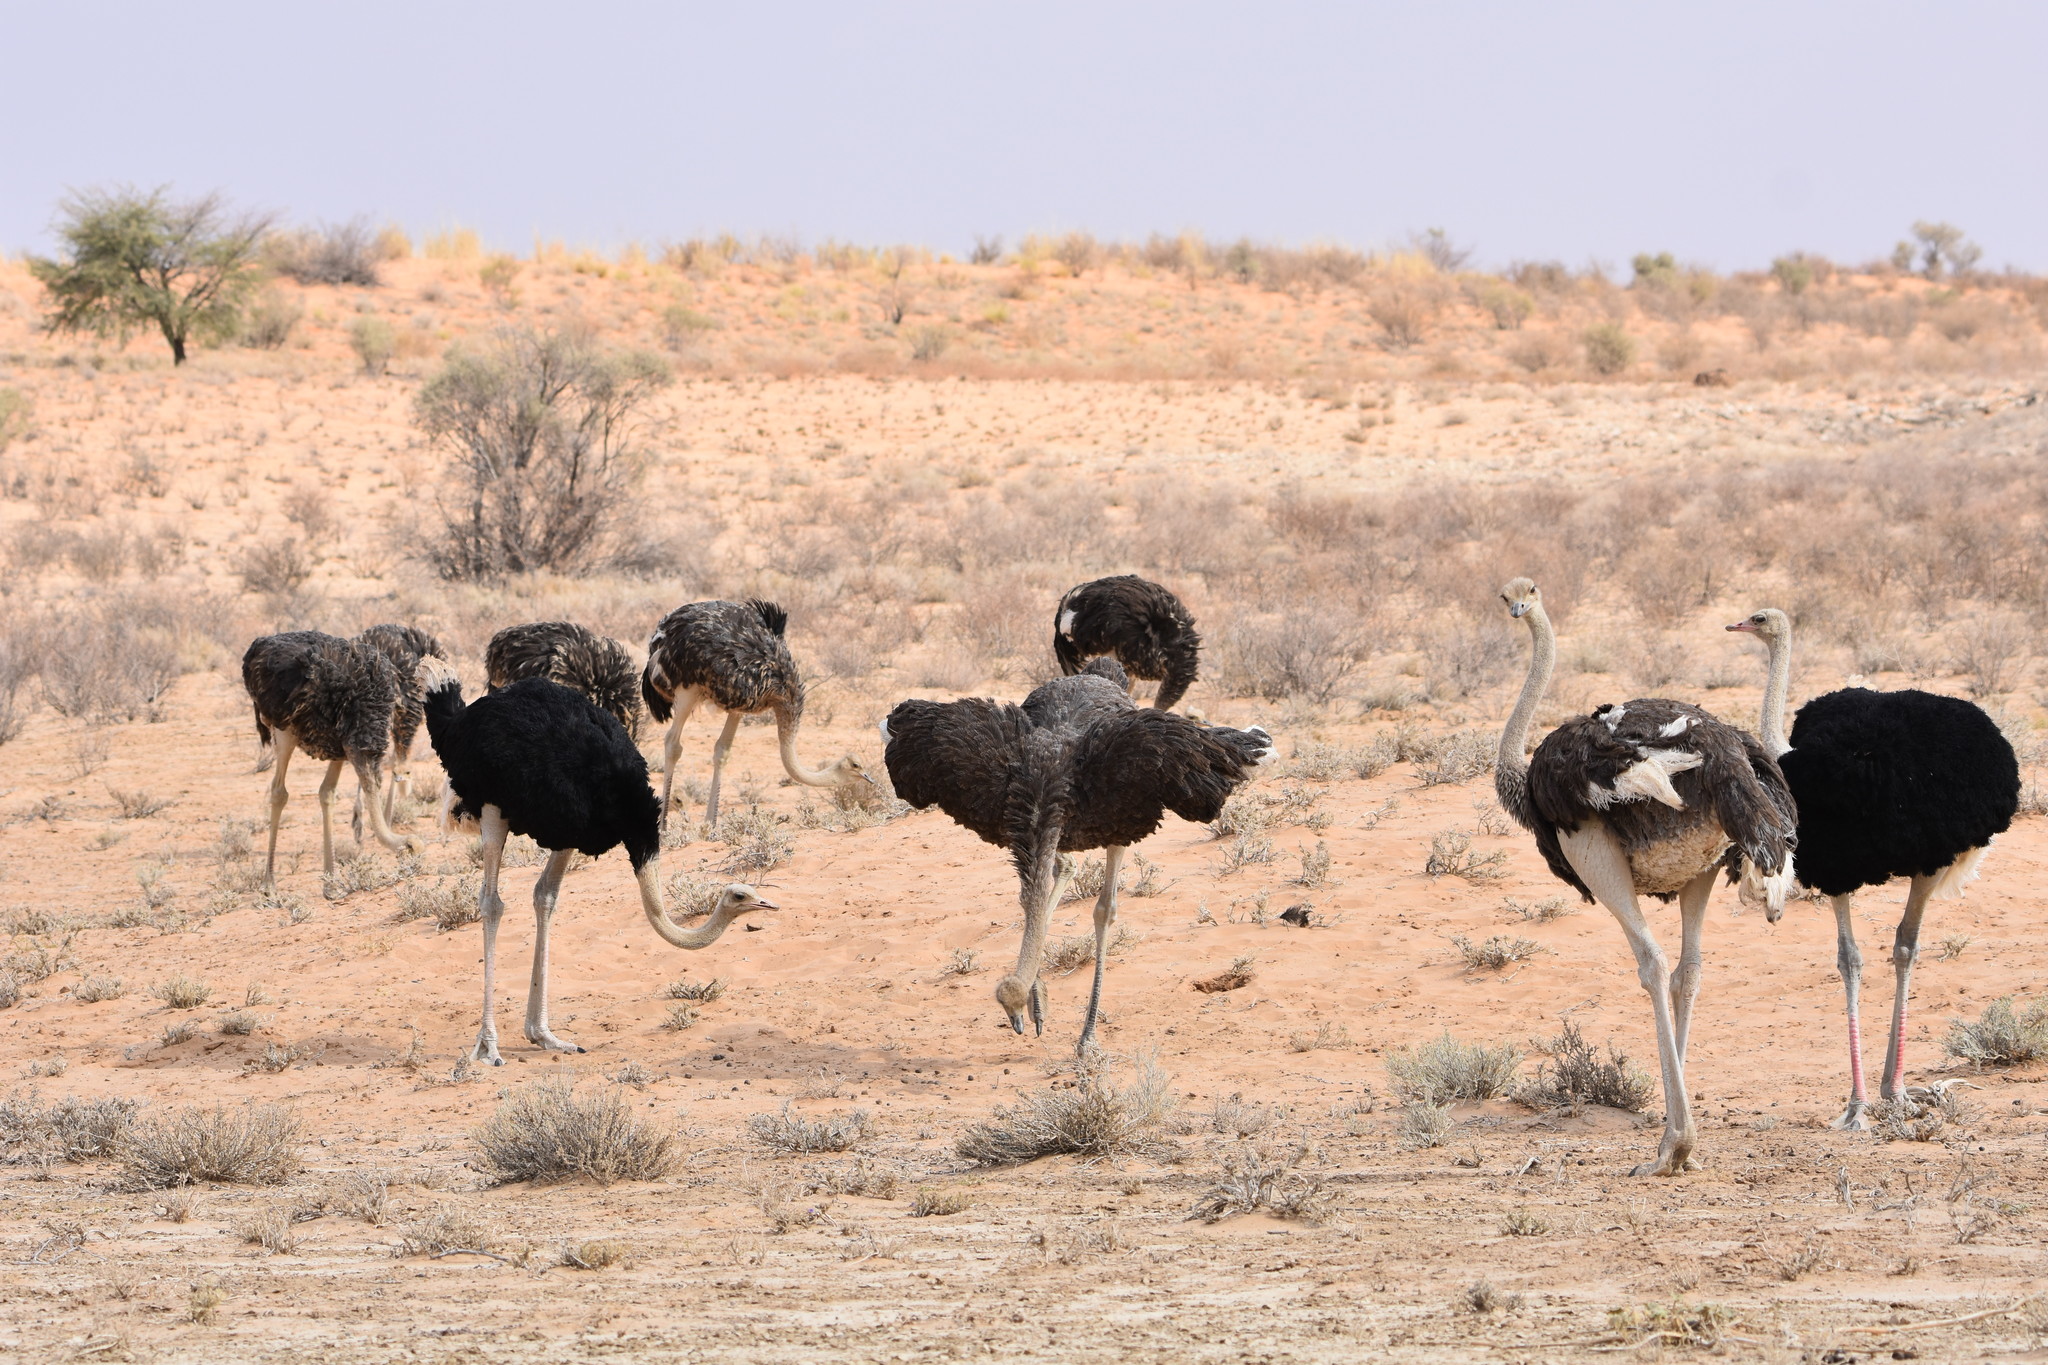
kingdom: Animalia
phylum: Chordata
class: Aves
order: Struthioniformes
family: Struthionidae
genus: Struthio
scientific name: Struthio camelus
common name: Common ostrich
